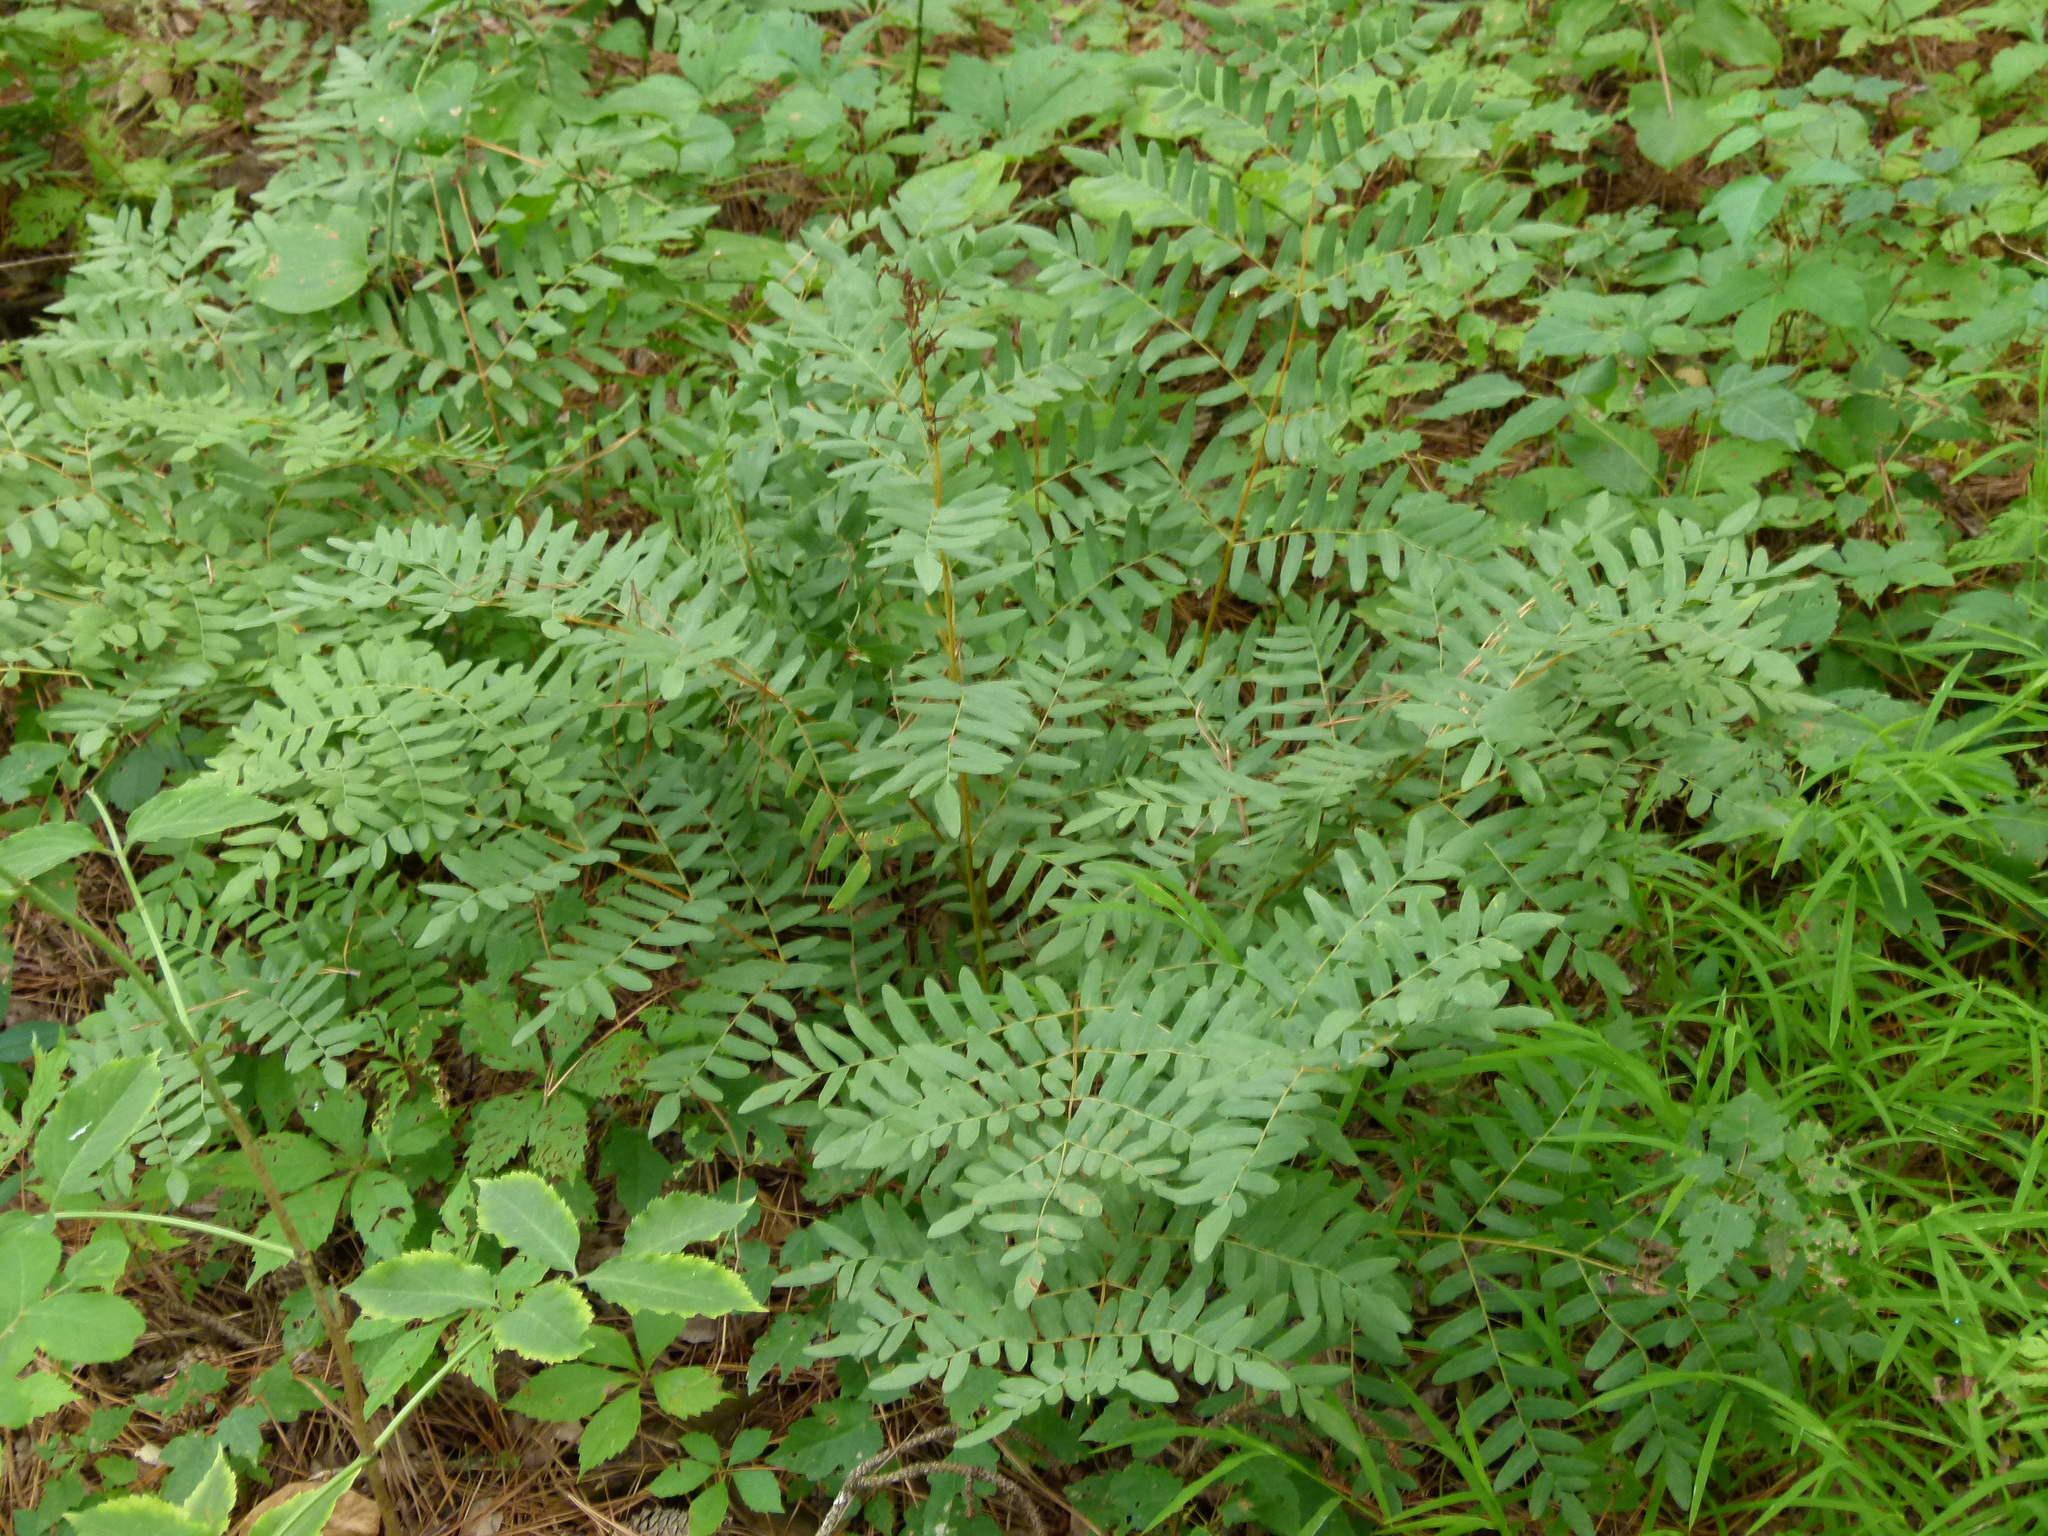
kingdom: Plantae
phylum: Tracheophyta
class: Polypodiopsida
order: Osmundales
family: Osmundaceae
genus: Osmunda
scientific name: Osmunda spectabilis
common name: American royal fern
